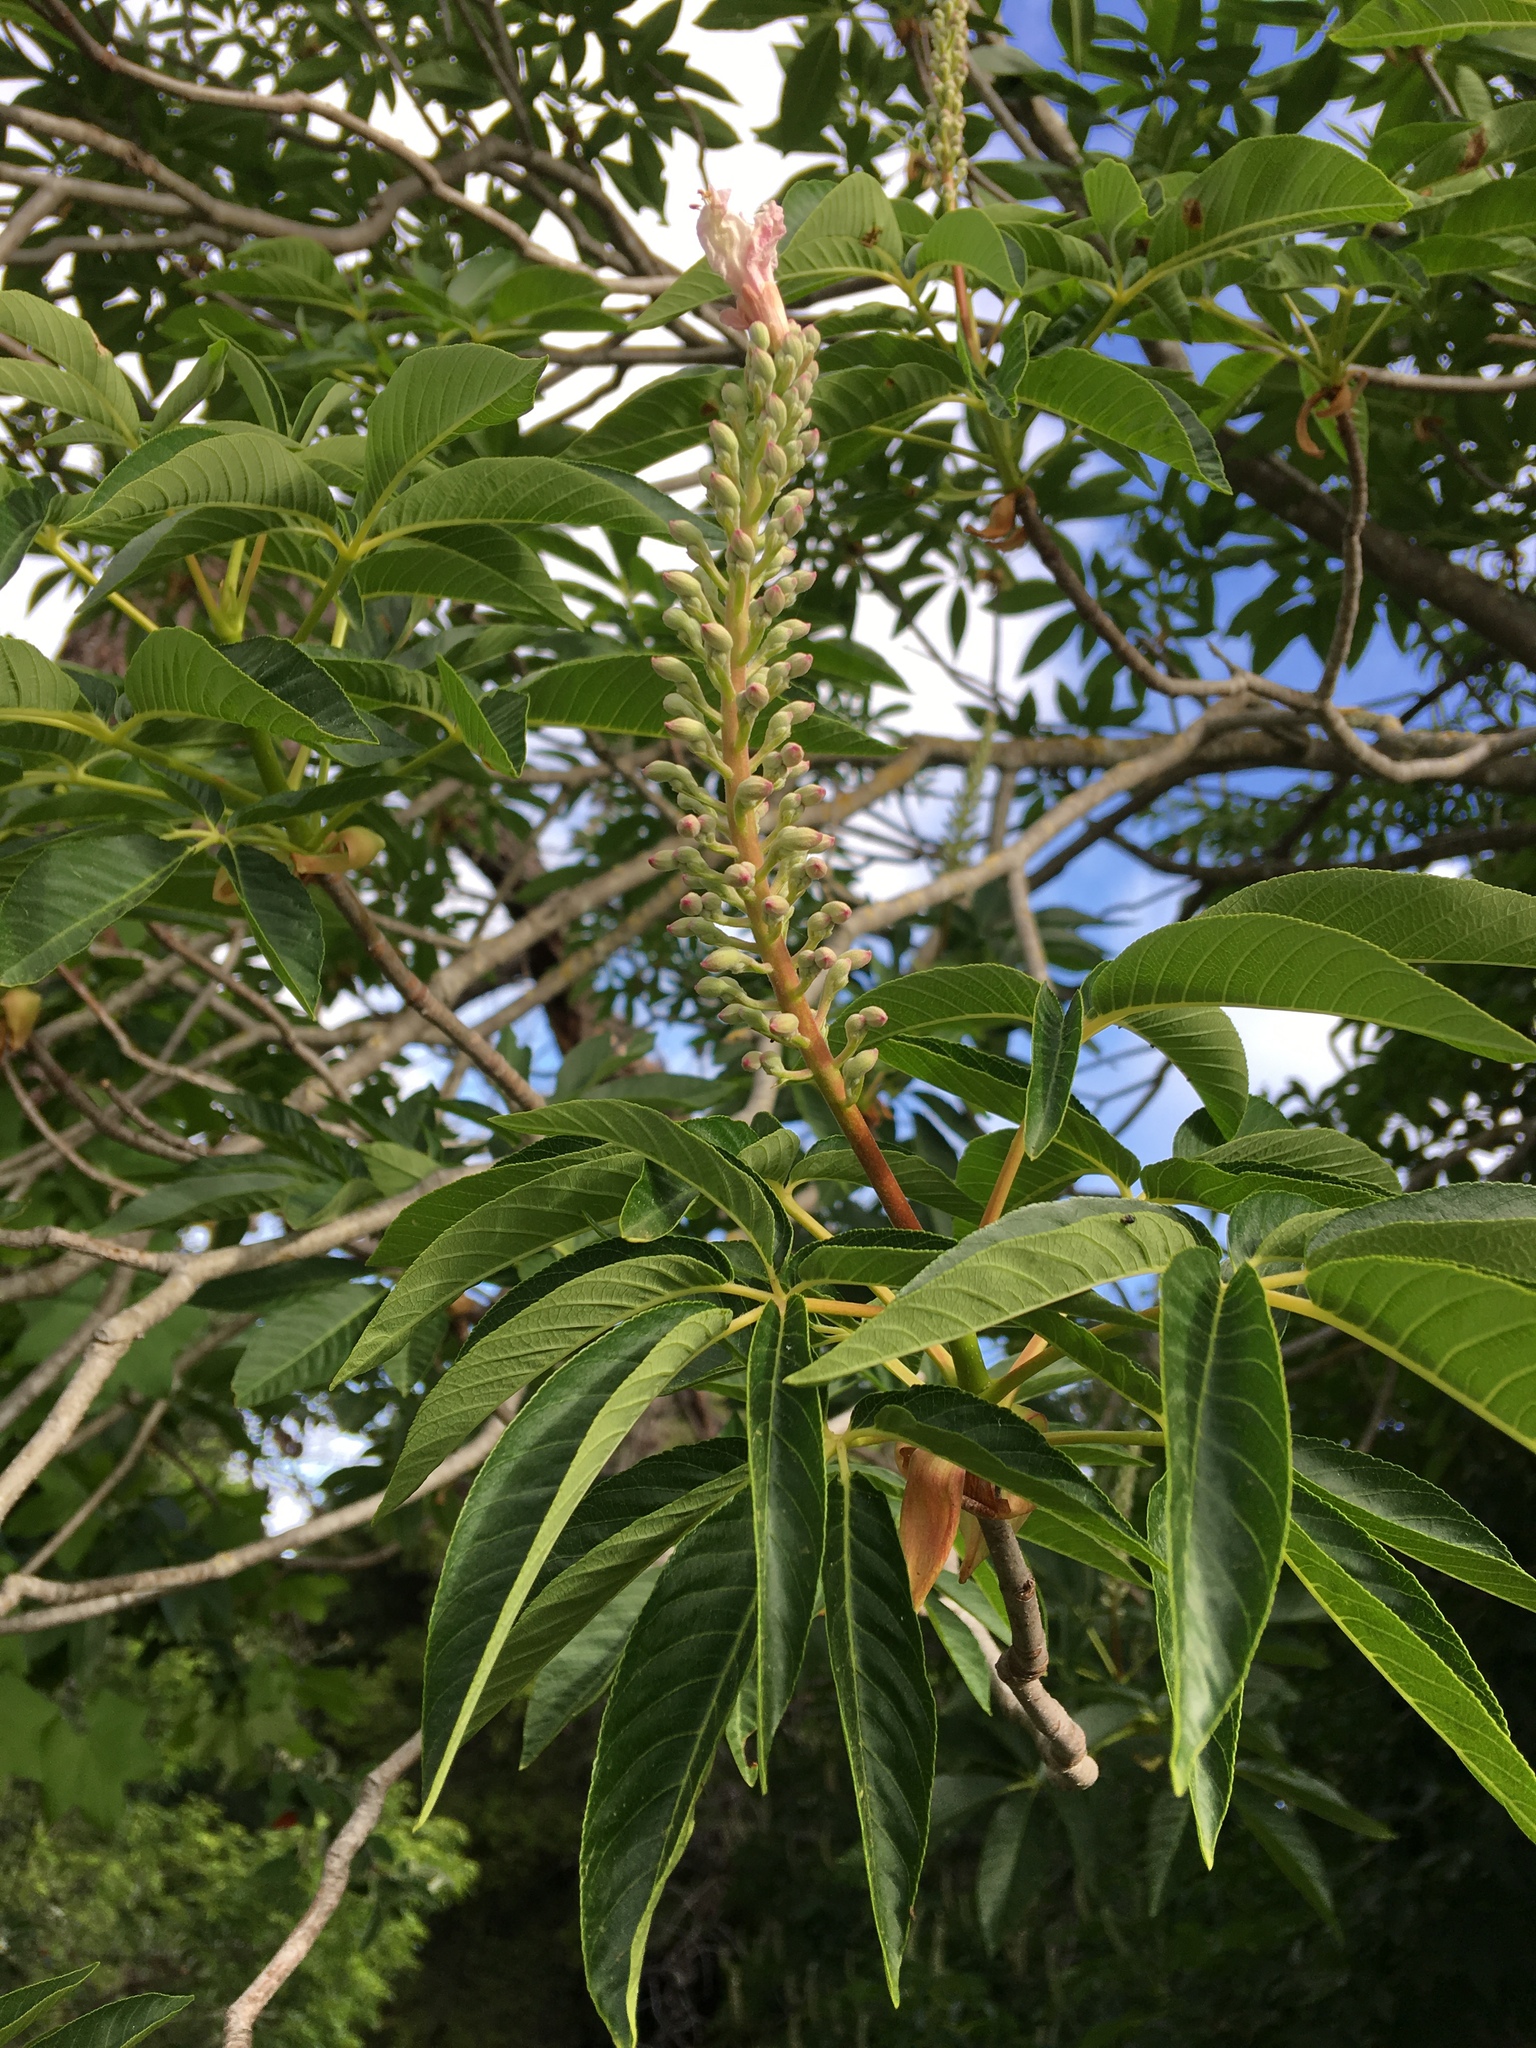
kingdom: Plantae
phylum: Tracheophyta
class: Magnoliopsida
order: Sapindales
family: Sapindaceae
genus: Aesculus
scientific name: Aesculus californica
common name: California buckeye
